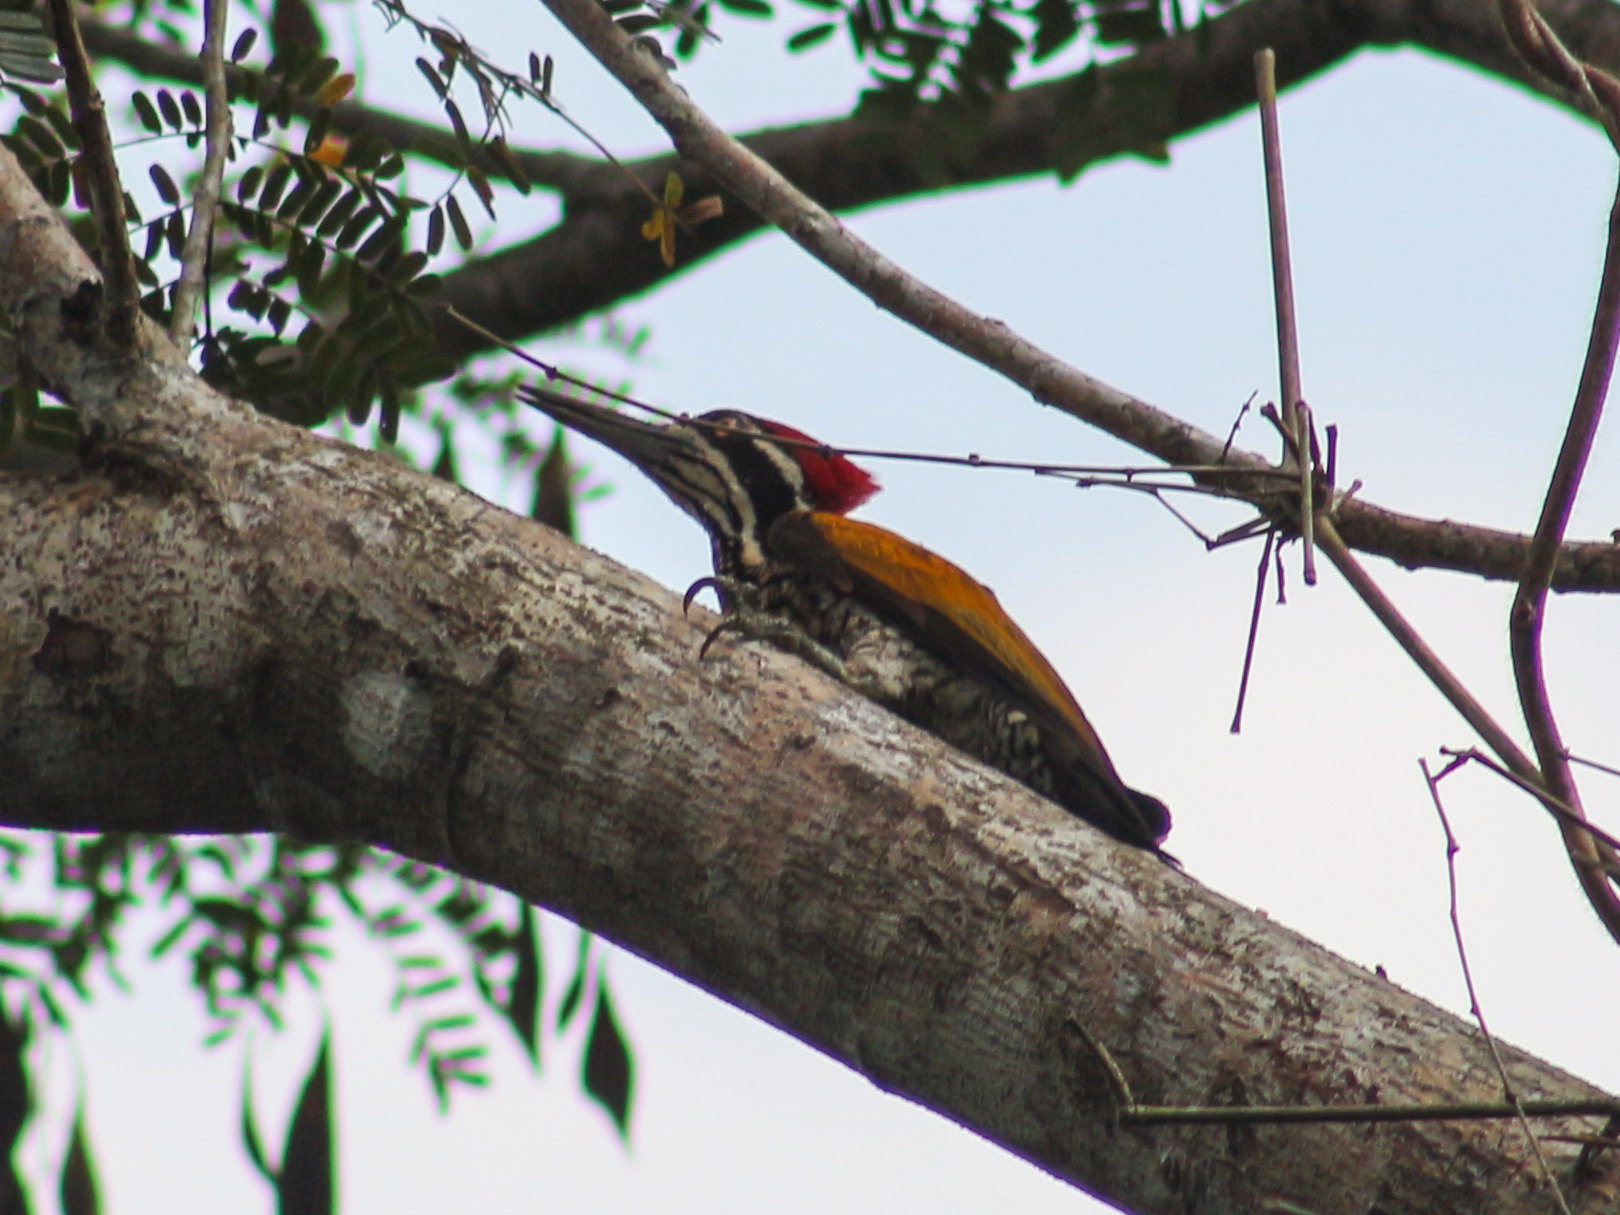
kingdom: Animalia
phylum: Chordata
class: Aves
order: Piciformes
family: Picidae
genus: Chrysocolaptes
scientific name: Chrysocolaptes guttacristatus
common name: Greater flameback
